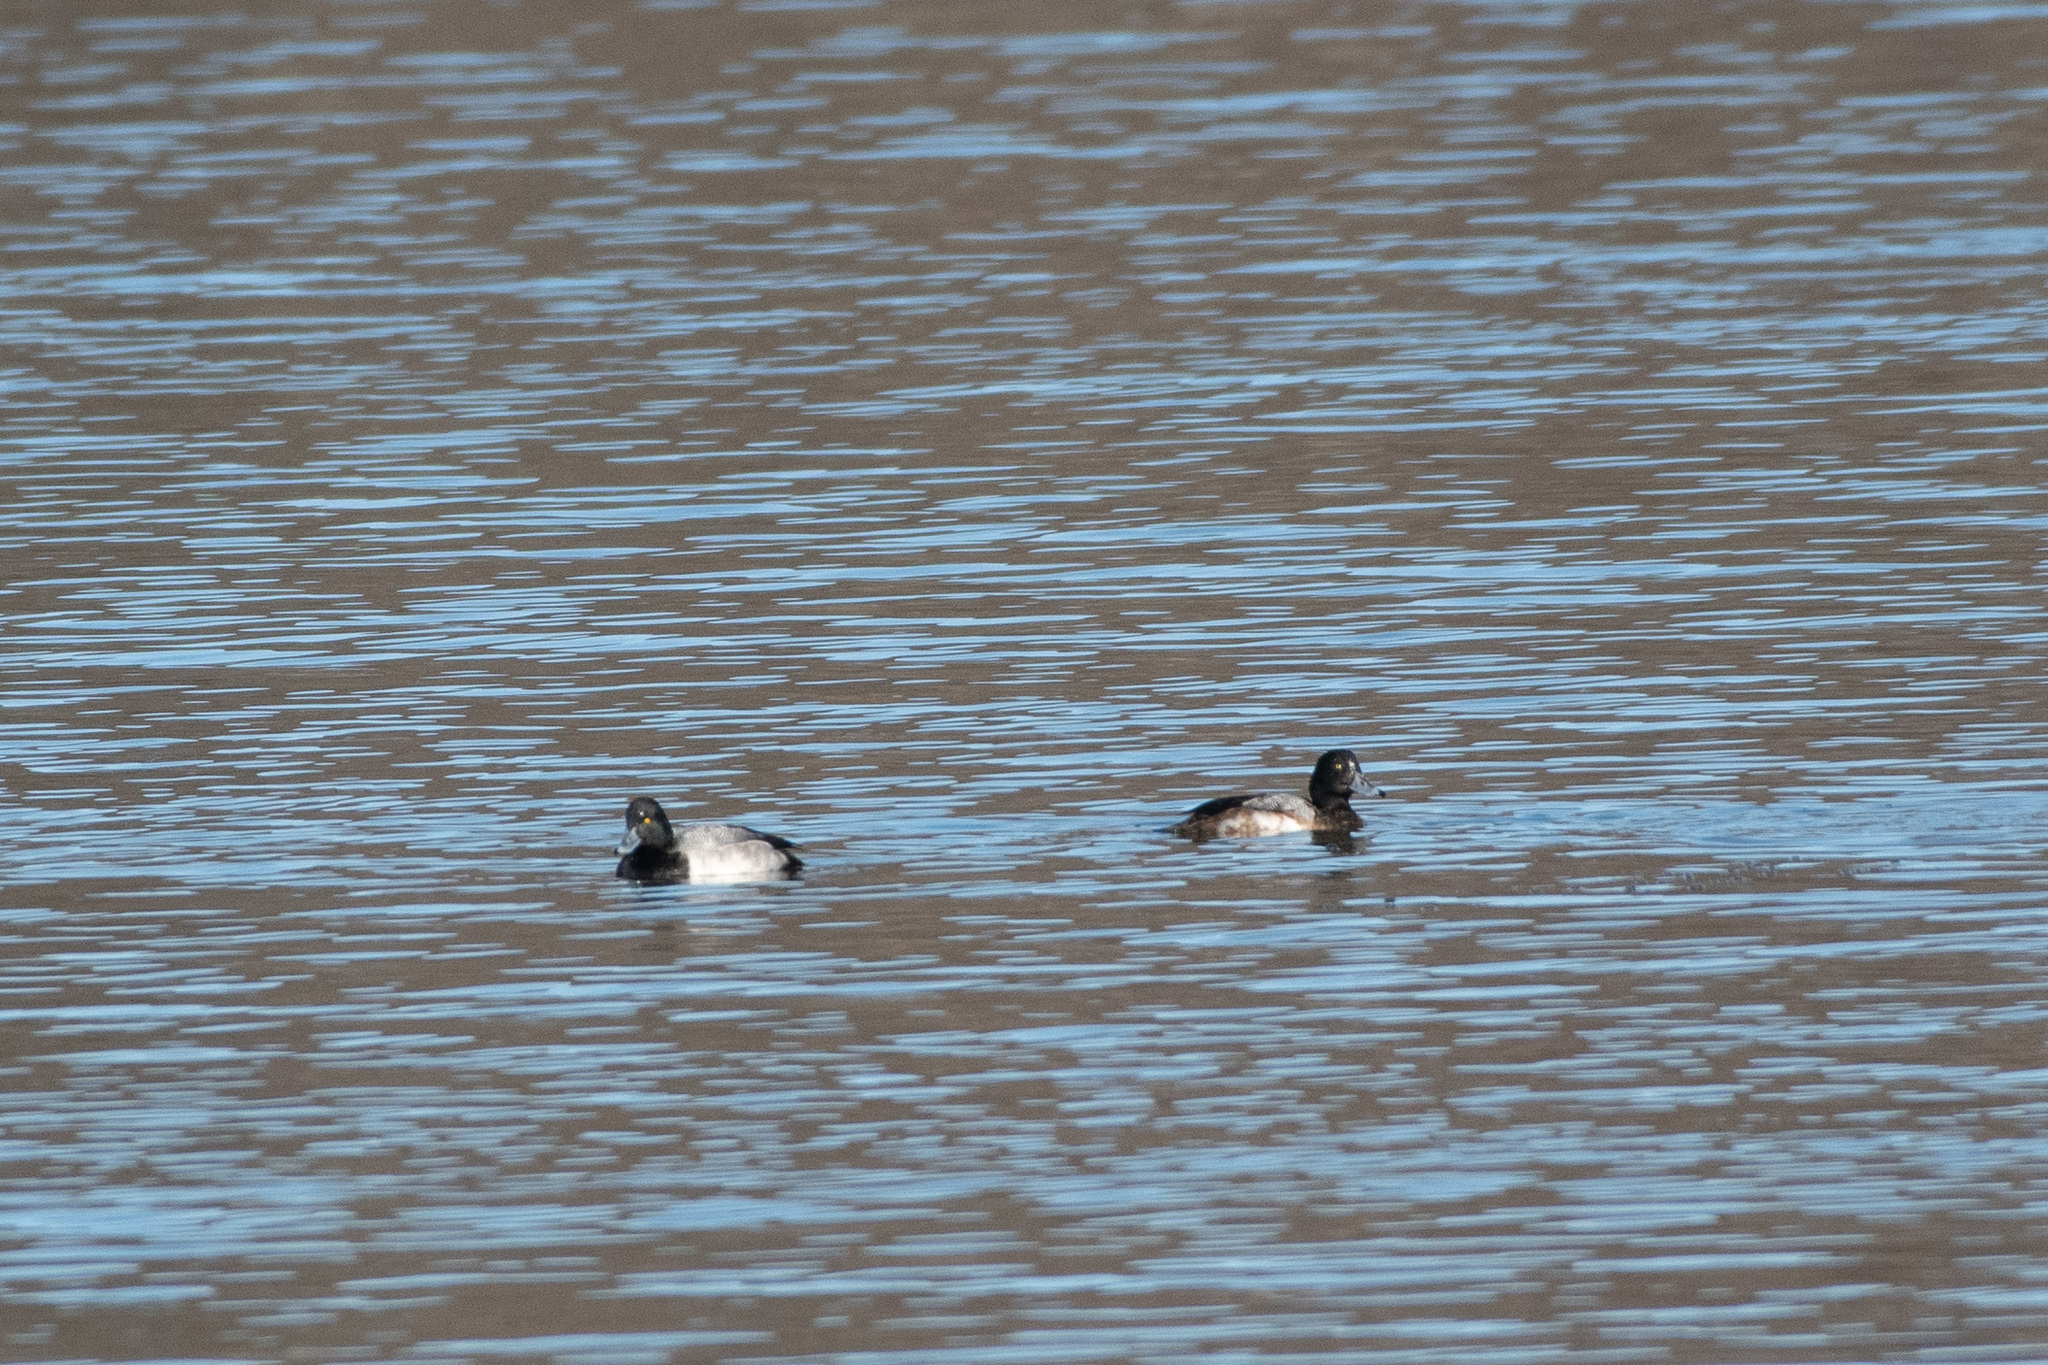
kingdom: Animalia
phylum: Chordata
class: Aves
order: Anseriformes
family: Anatidae
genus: Aythya
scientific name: Aythya marila
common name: Greater scaup
